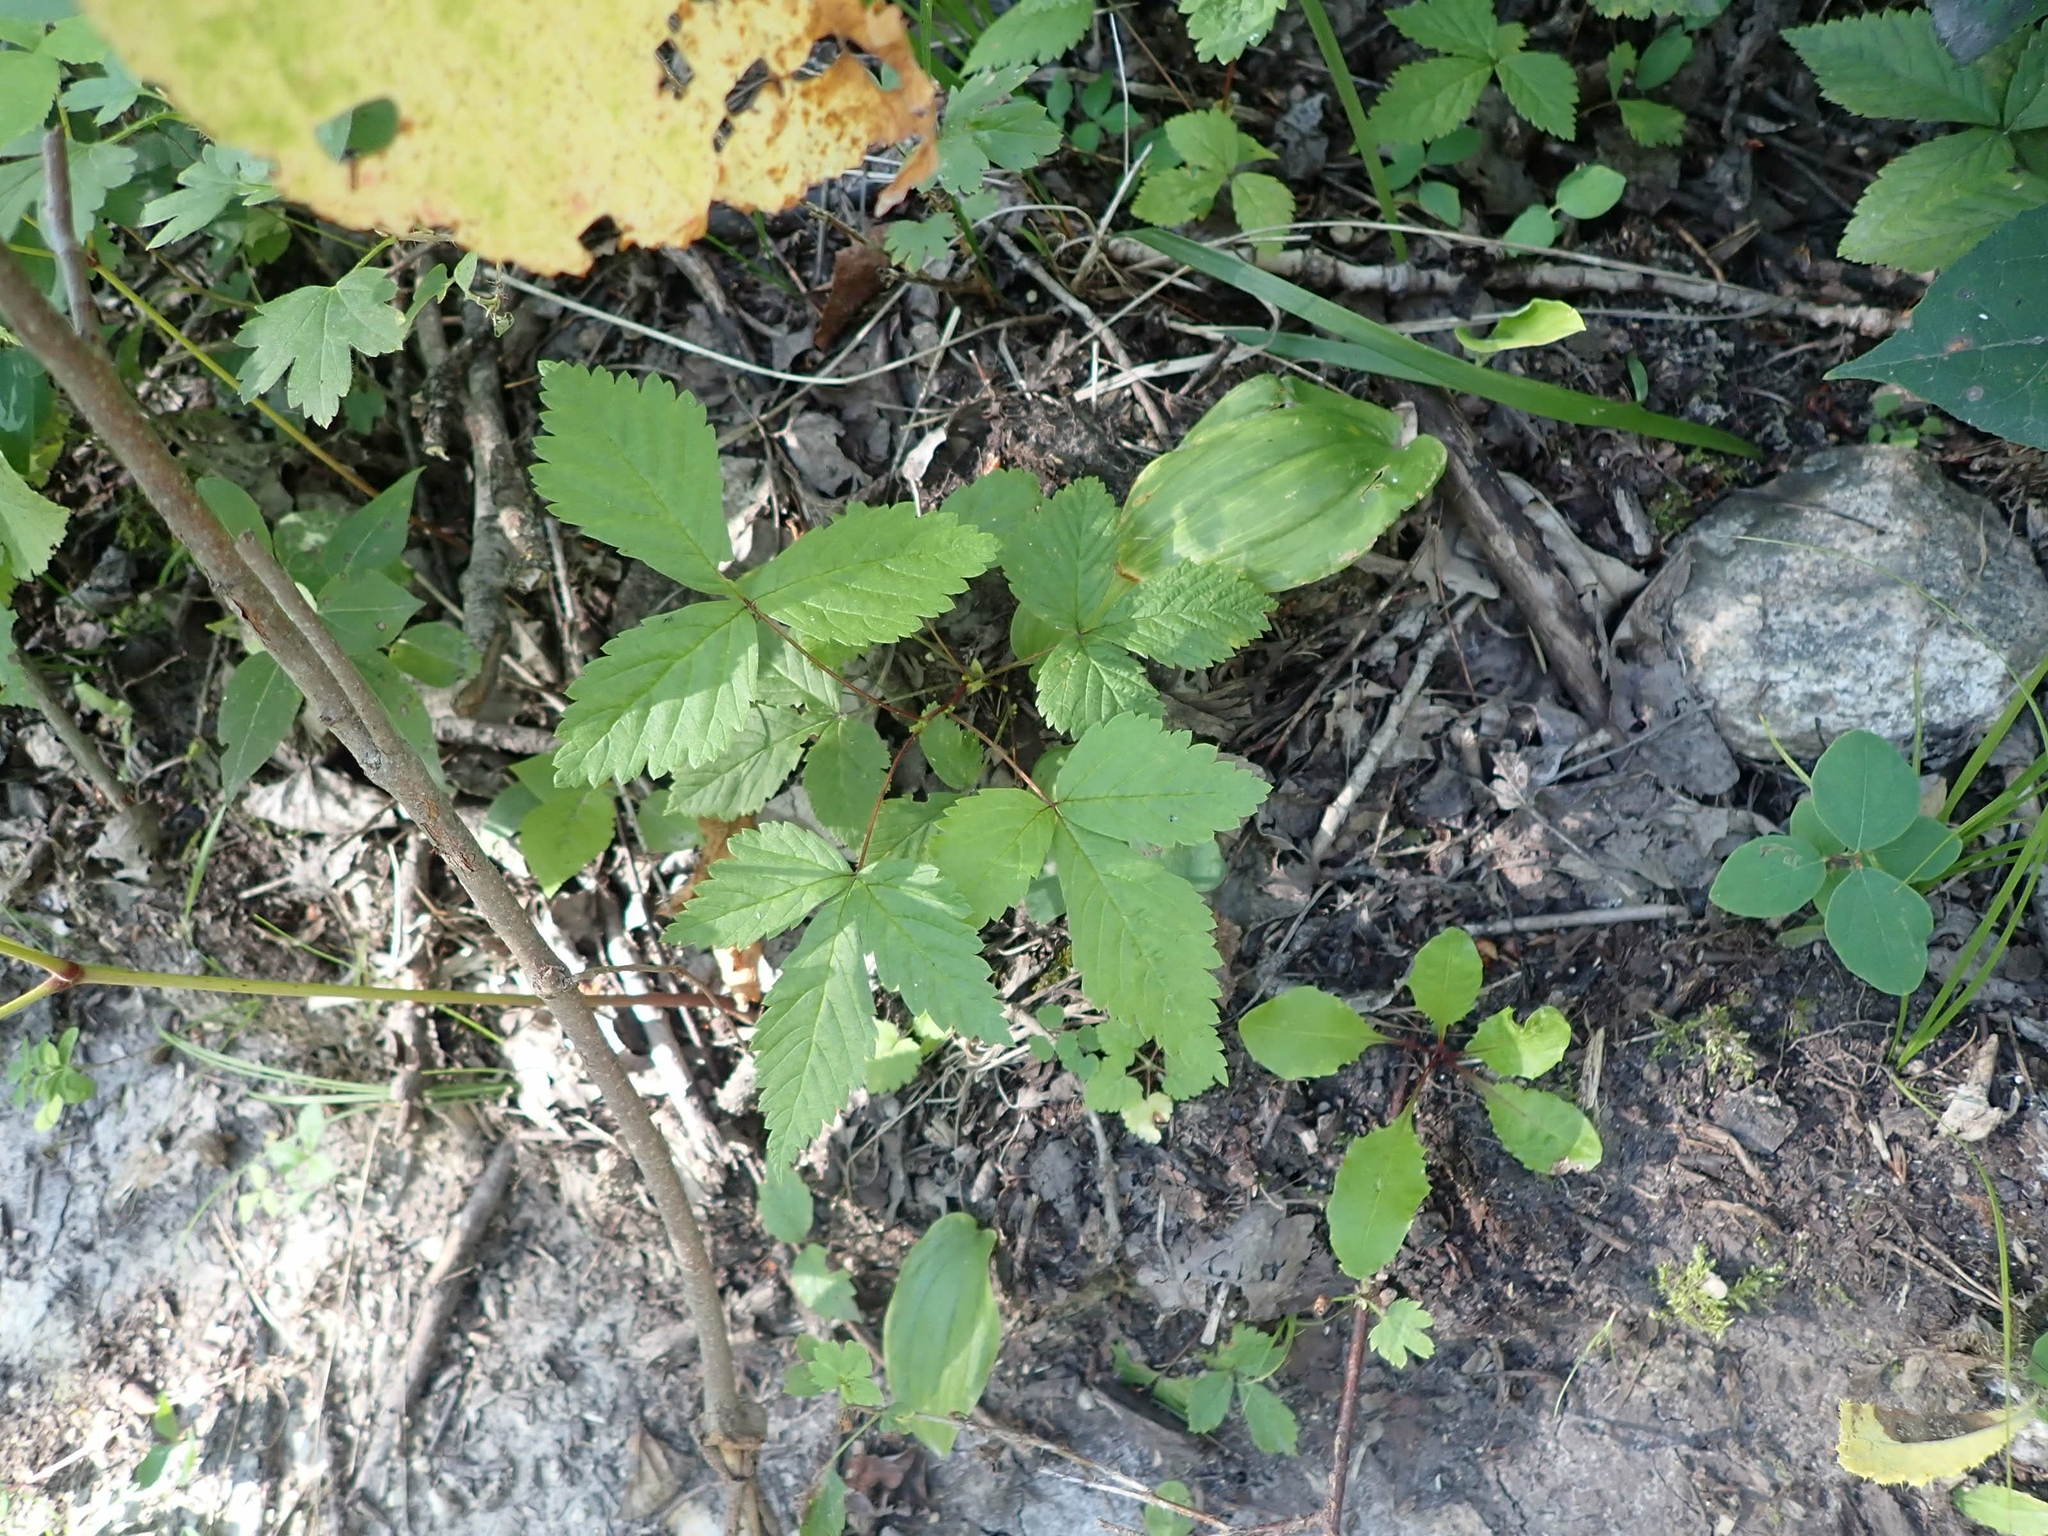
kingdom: Plantae
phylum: Tracheophyta
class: Magnoliopsida
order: Rosales
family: Rosaceae
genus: Rubus
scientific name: Rubus pubescens
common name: Dwarf raspberry
